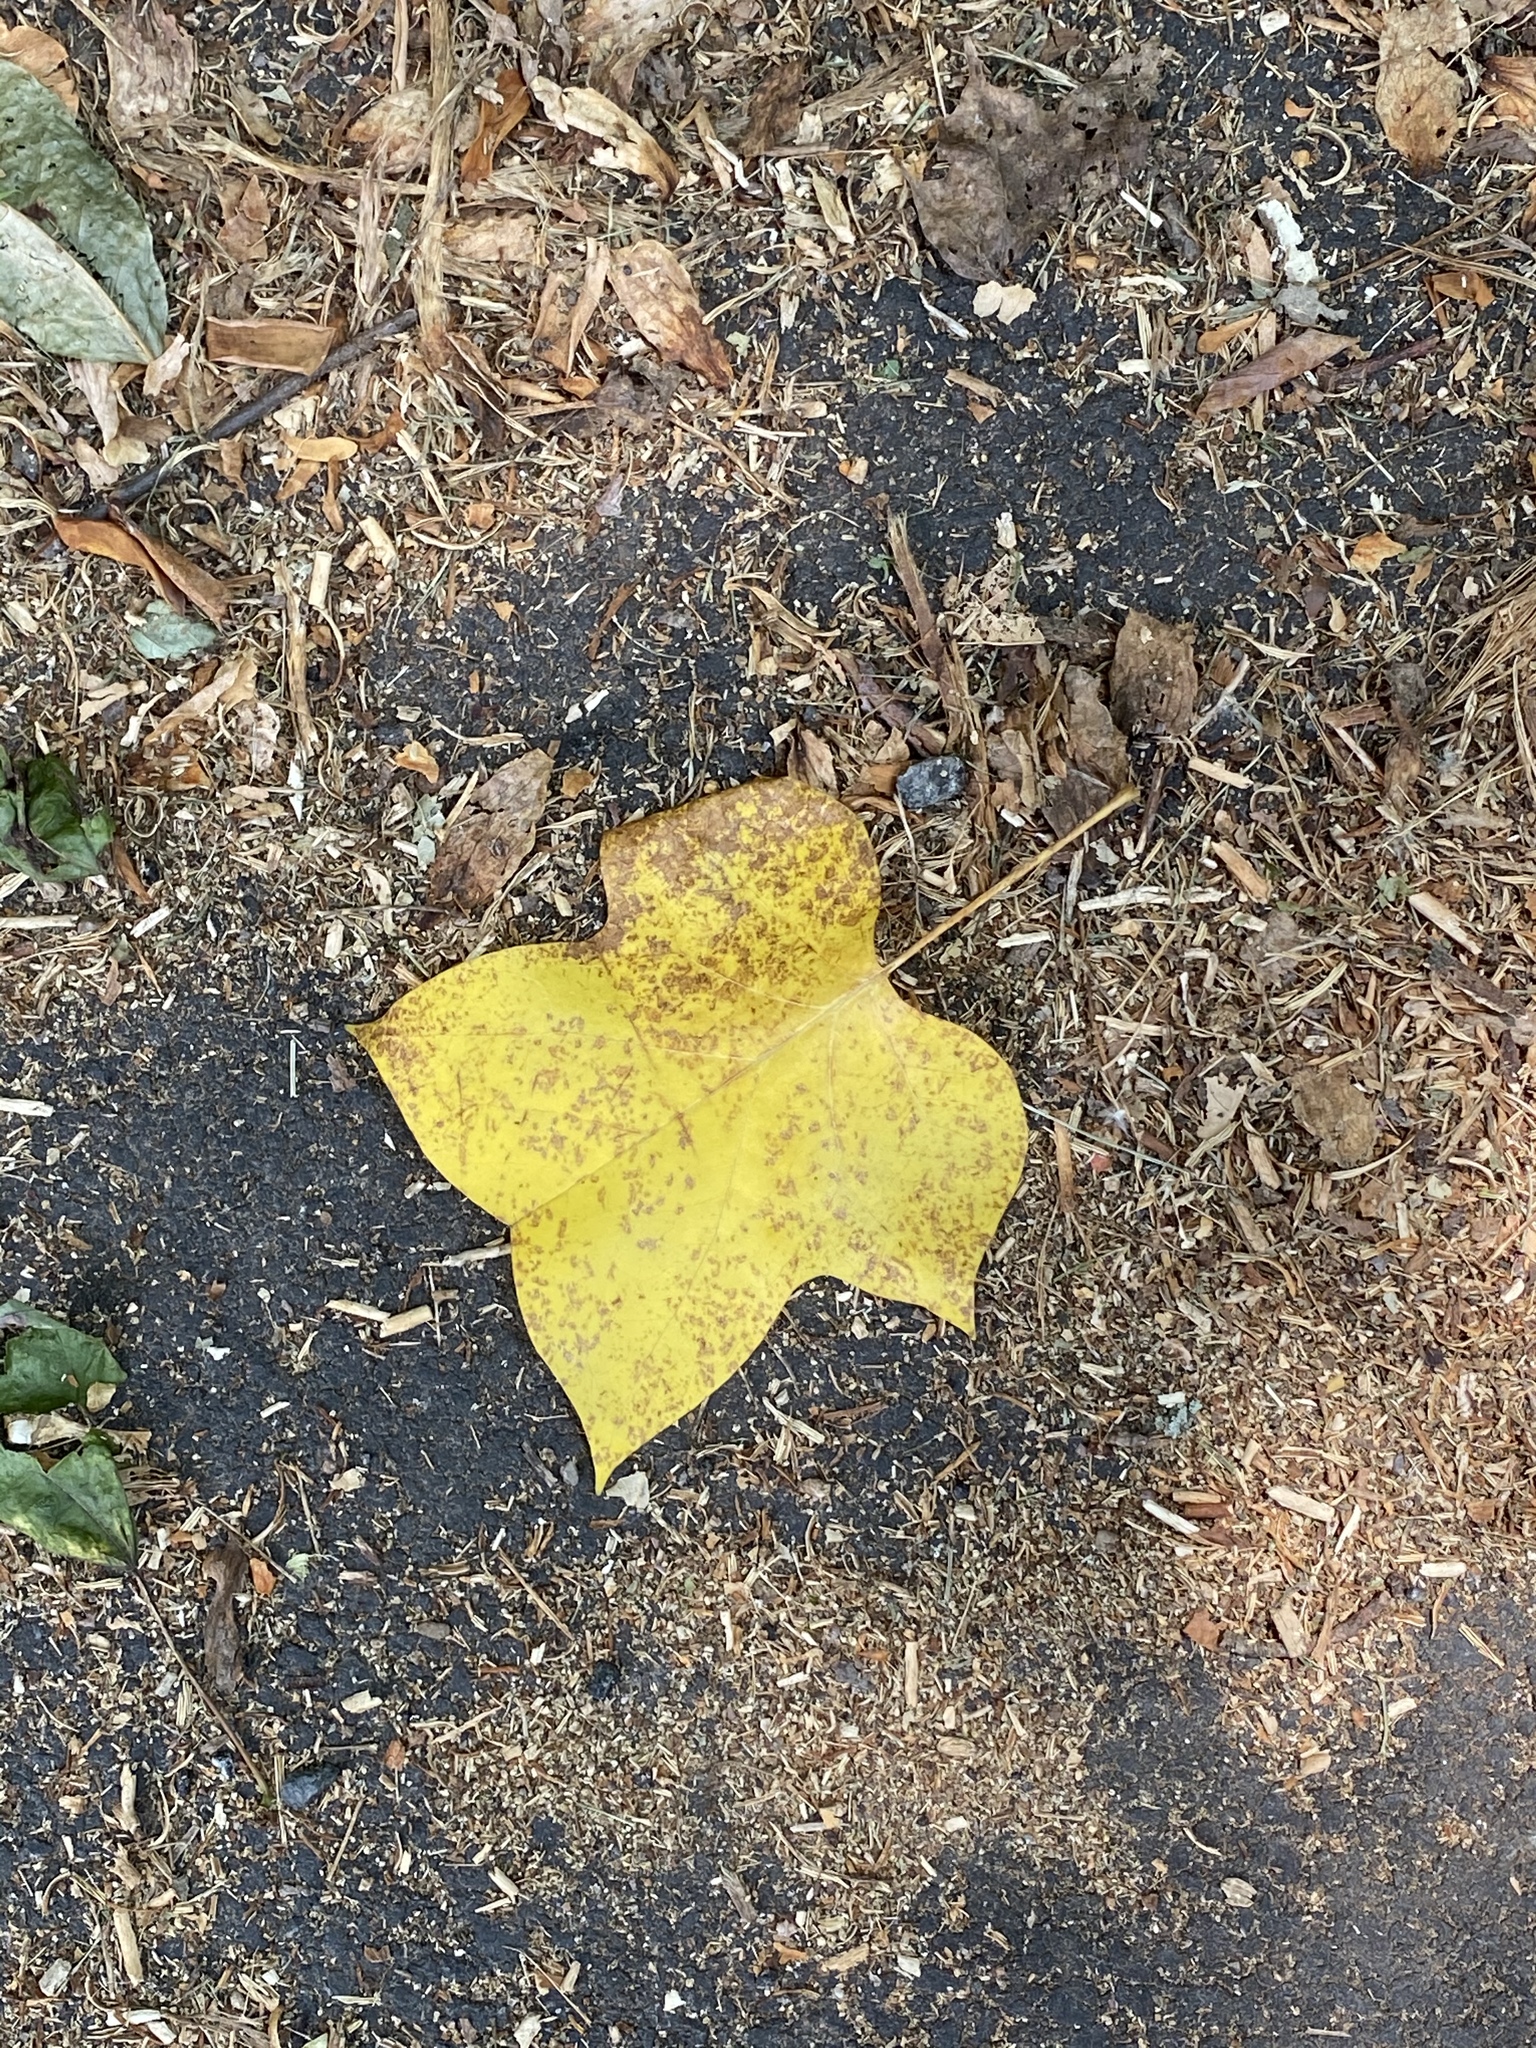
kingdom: Plantae
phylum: Tracheophyta
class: Magnoliopsida
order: Magnoliales
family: Magnoliaceae
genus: Liriodendron
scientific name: Liriodendron tulipifera
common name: Tulip tree
